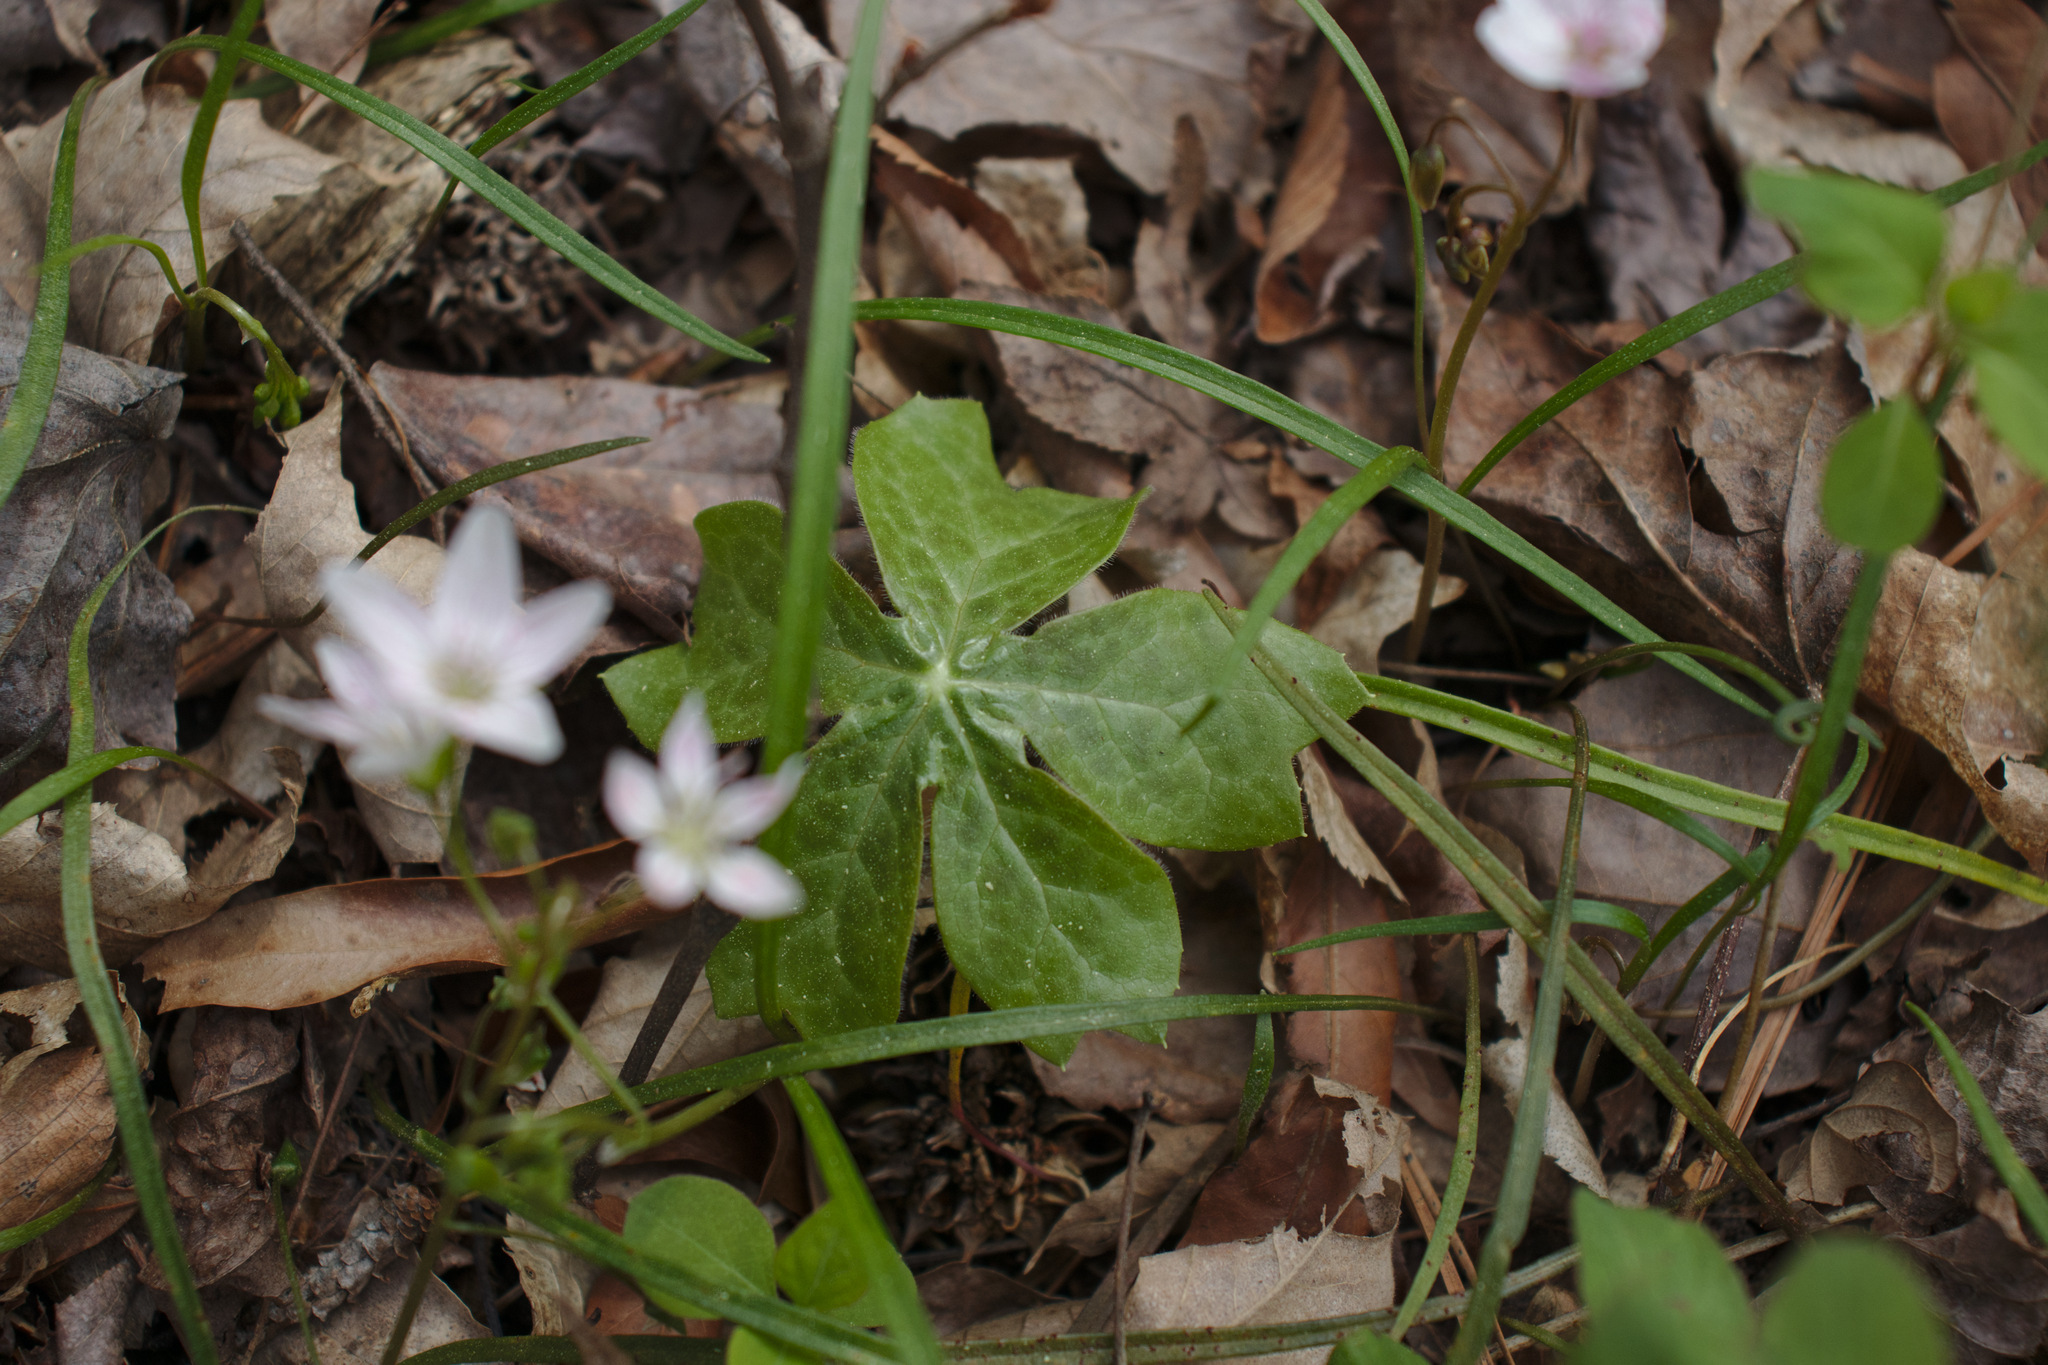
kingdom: Plantae
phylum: Tracheophyta
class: Magnoliopsida
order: Ranunculales
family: Berberidaceae
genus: Podophyllum
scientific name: Podophyllum peltatum
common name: Wild mandrake
